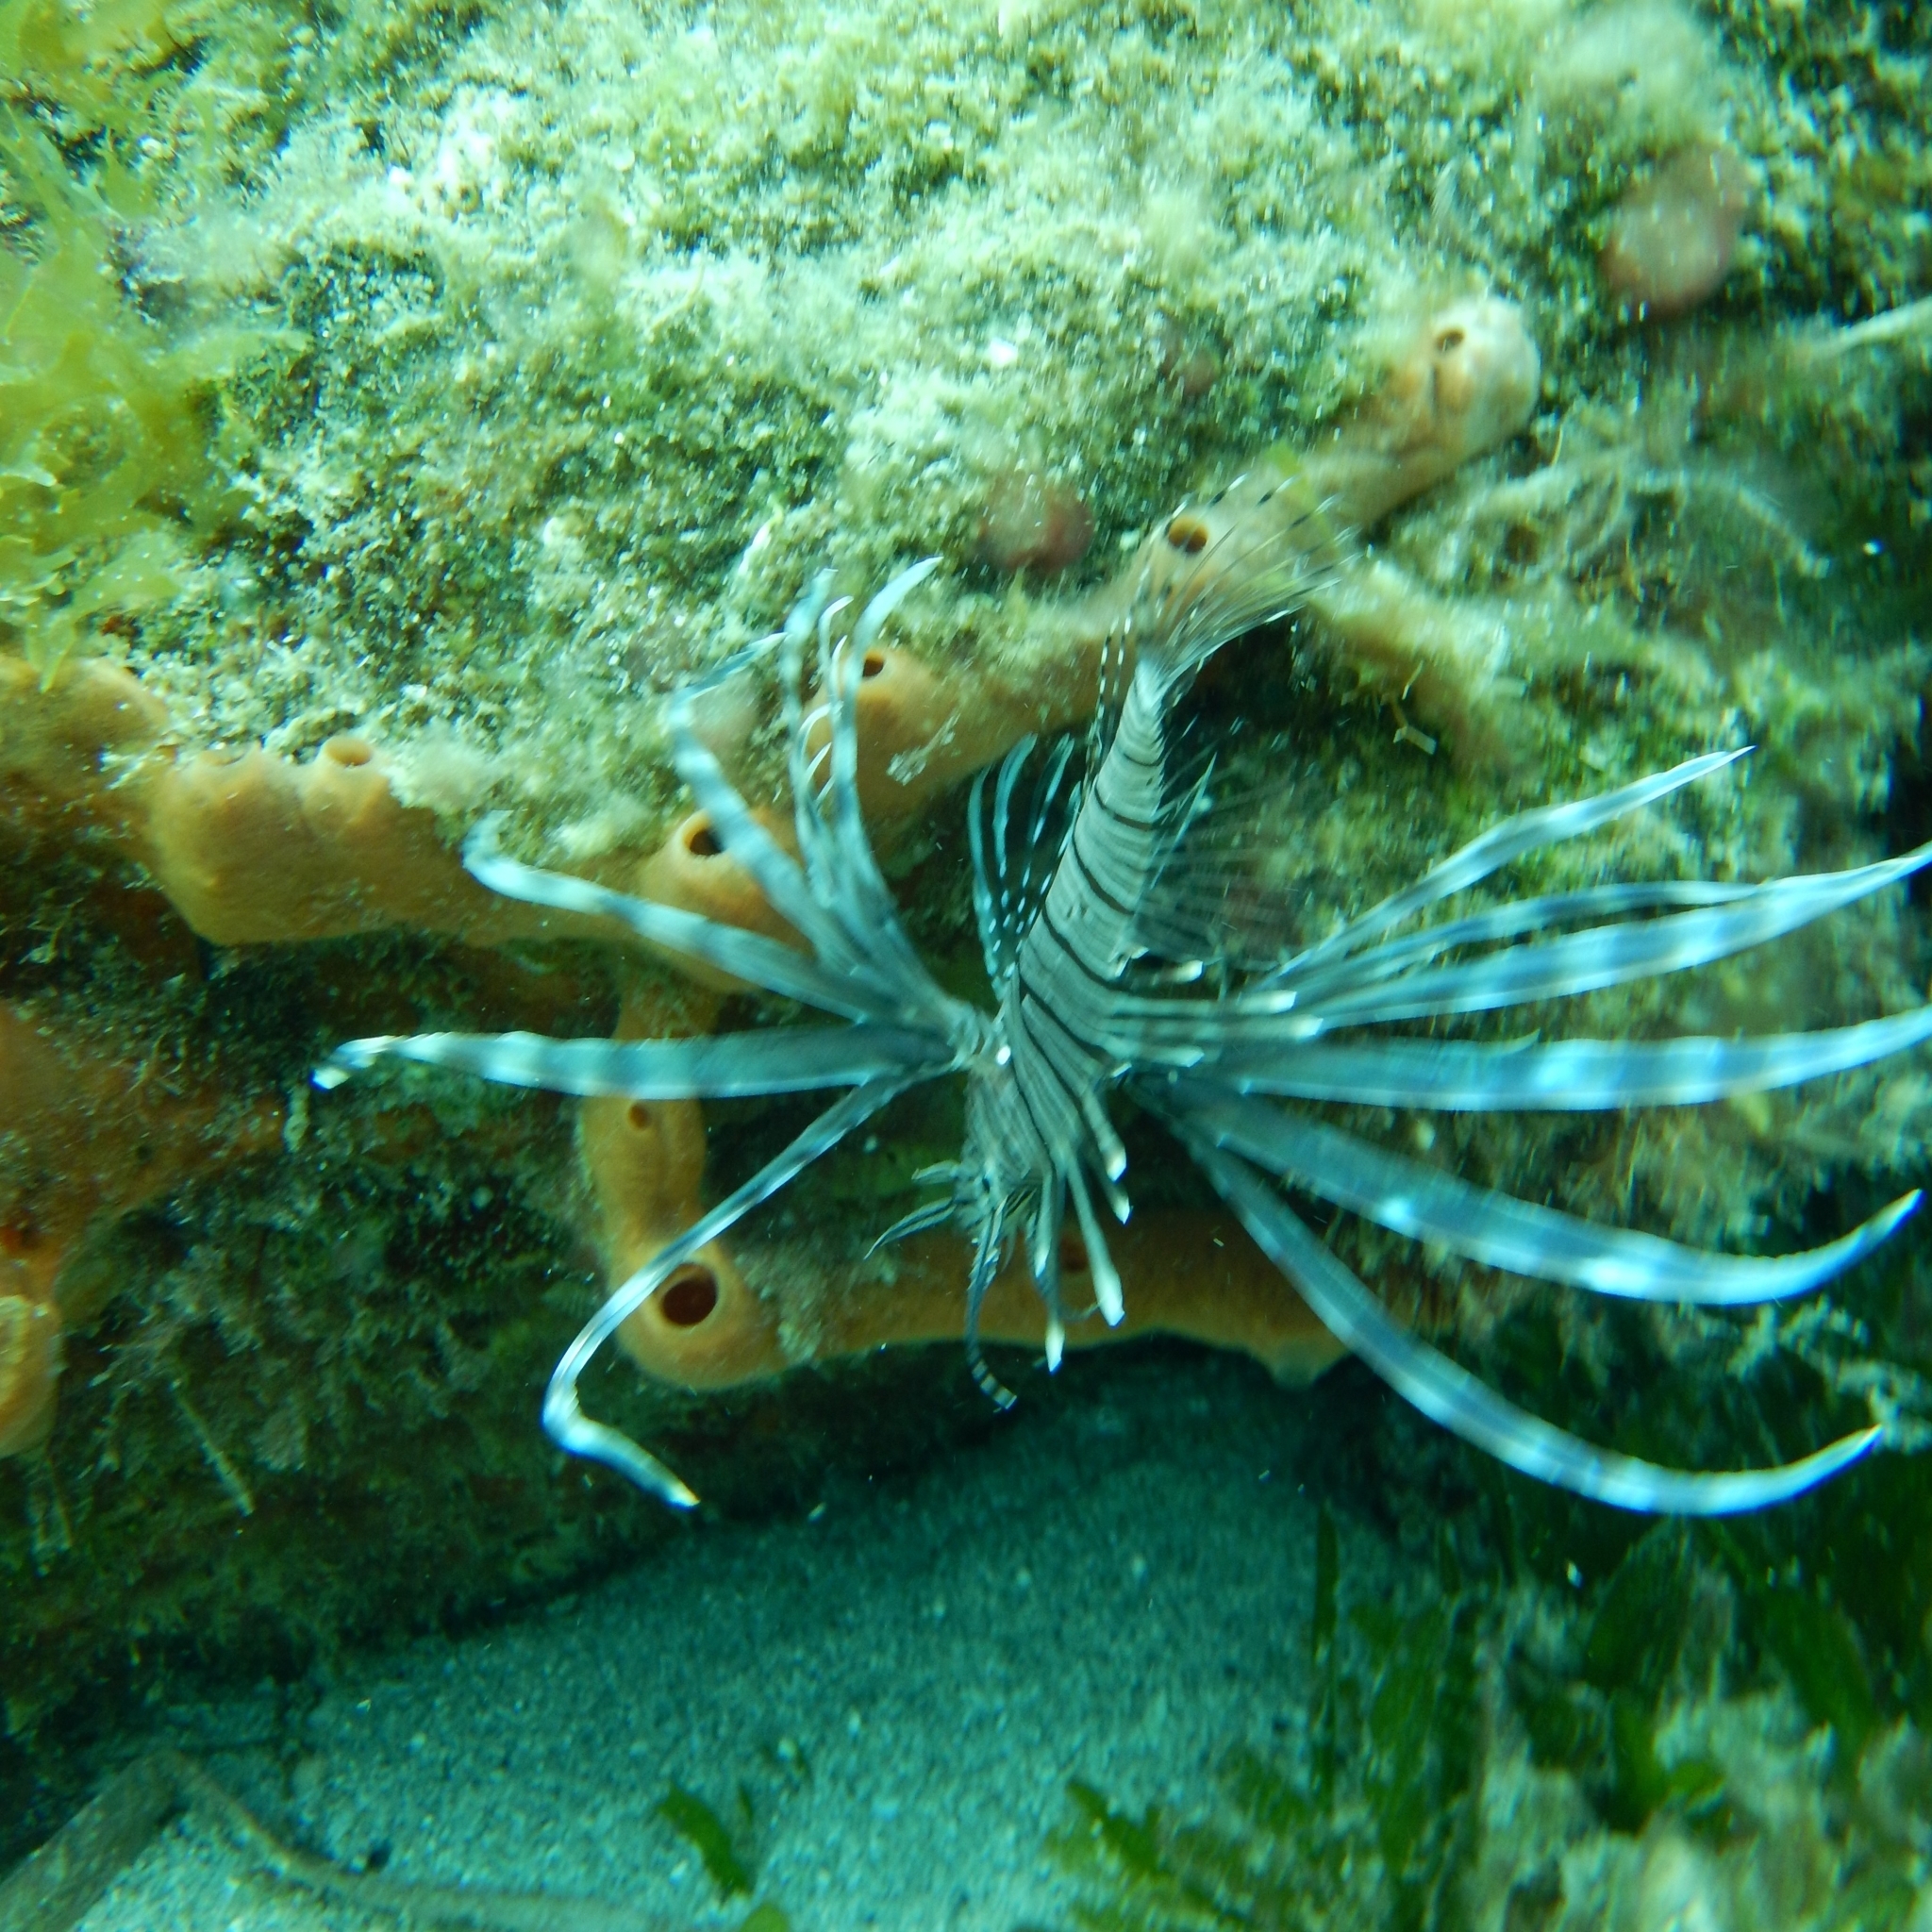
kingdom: Animalia
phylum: Chordata
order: Scorpaeniformes
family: Scorpaenidae
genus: Pterois
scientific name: Pterois volitans
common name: Lionfish
